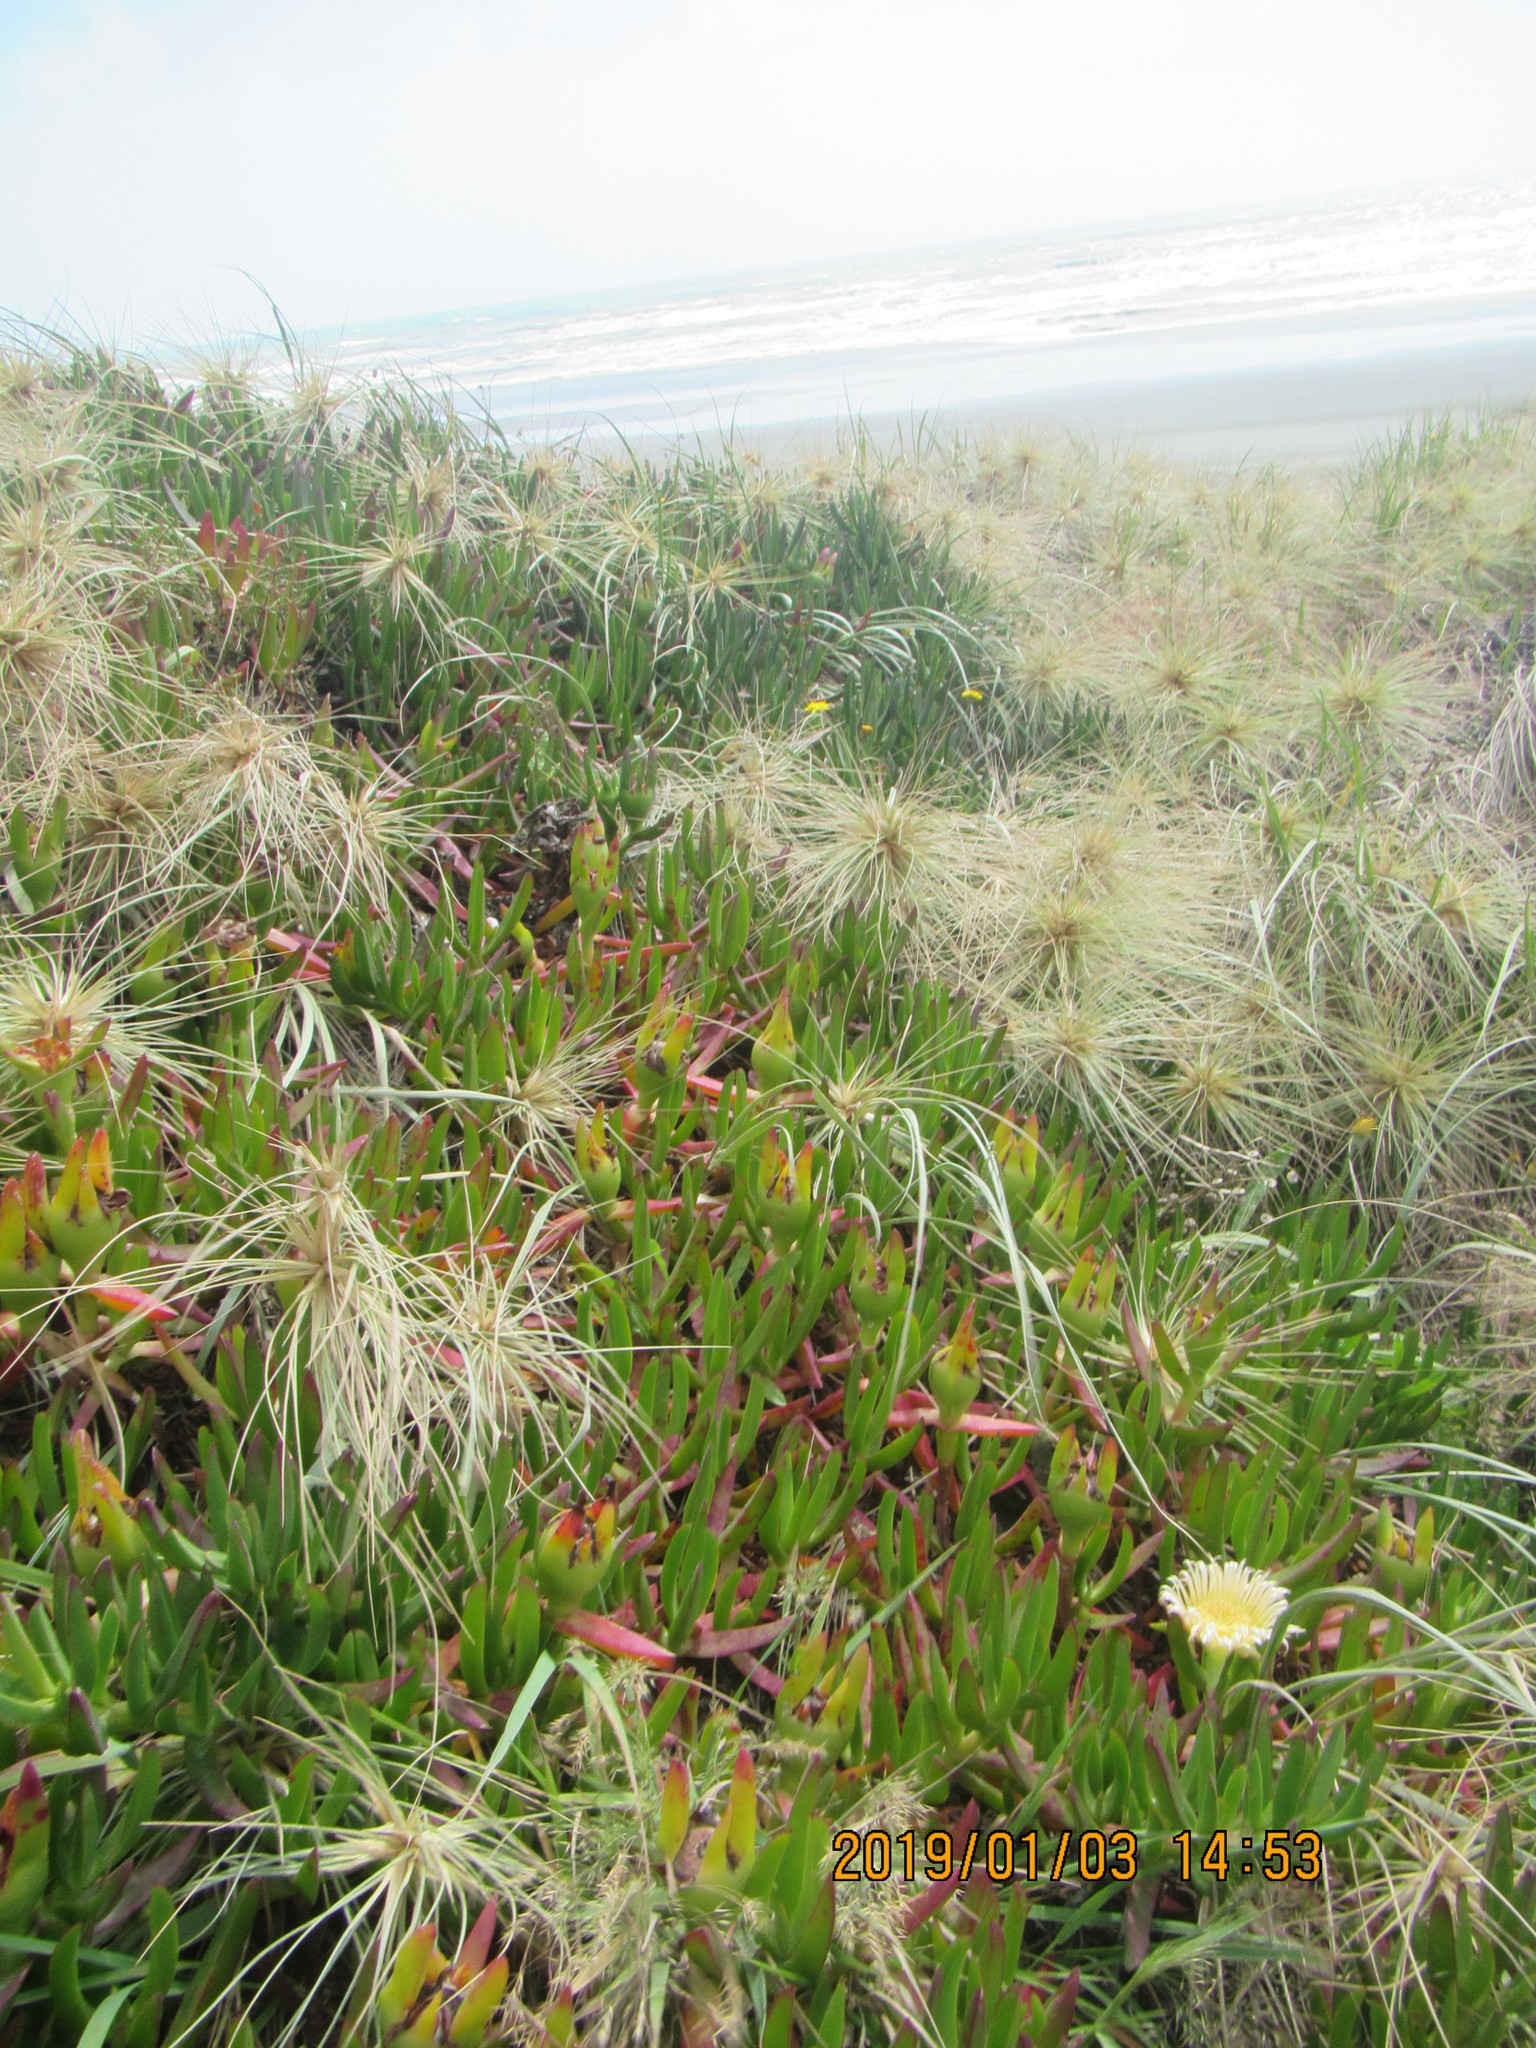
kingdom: Plantae
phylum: Tracheophyta
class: Magnoliopsida
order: Caryophyllales
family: Aizoaceae
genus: Carpobrotus
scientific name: Carpobrotus edulis
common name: Hottentot-fig
